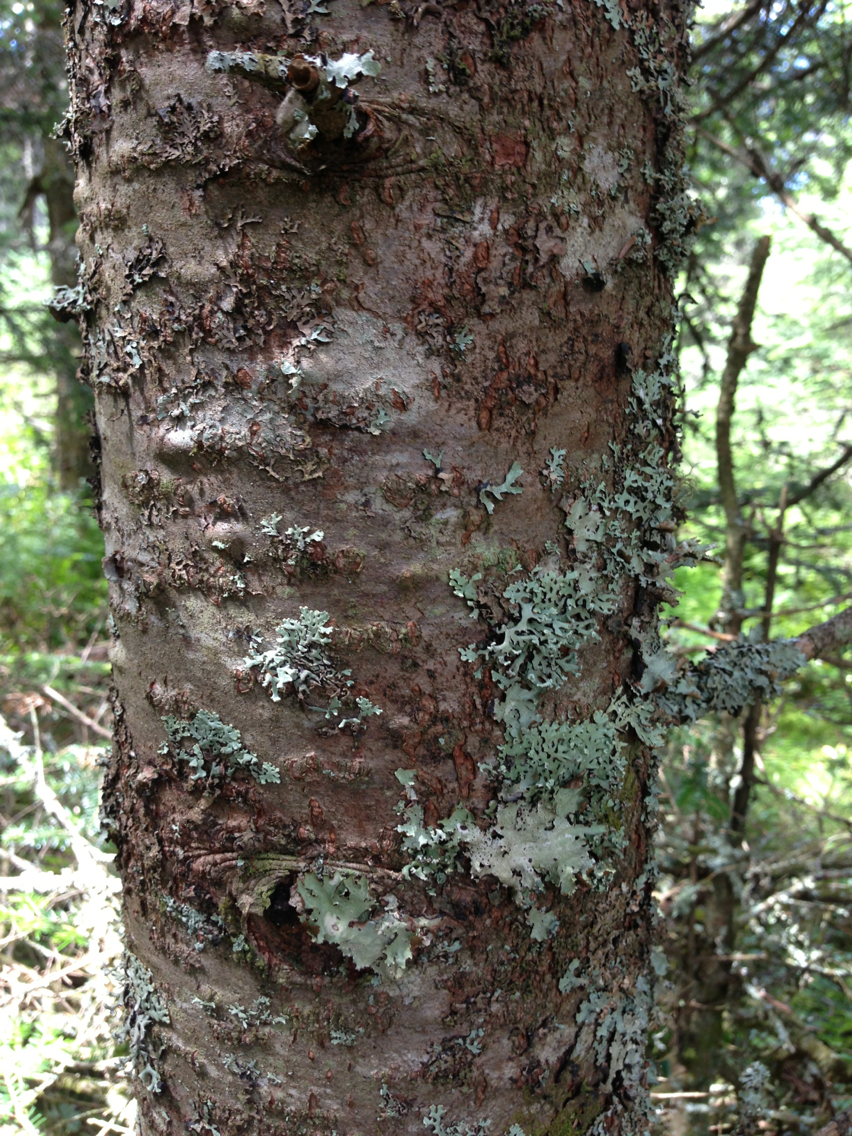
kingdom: Plantae
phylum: Tracheophyta
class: Pinopsida
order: Pinales
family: Pinaceae
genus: Abies
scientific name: Abies balsamea
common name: Balsam fir
